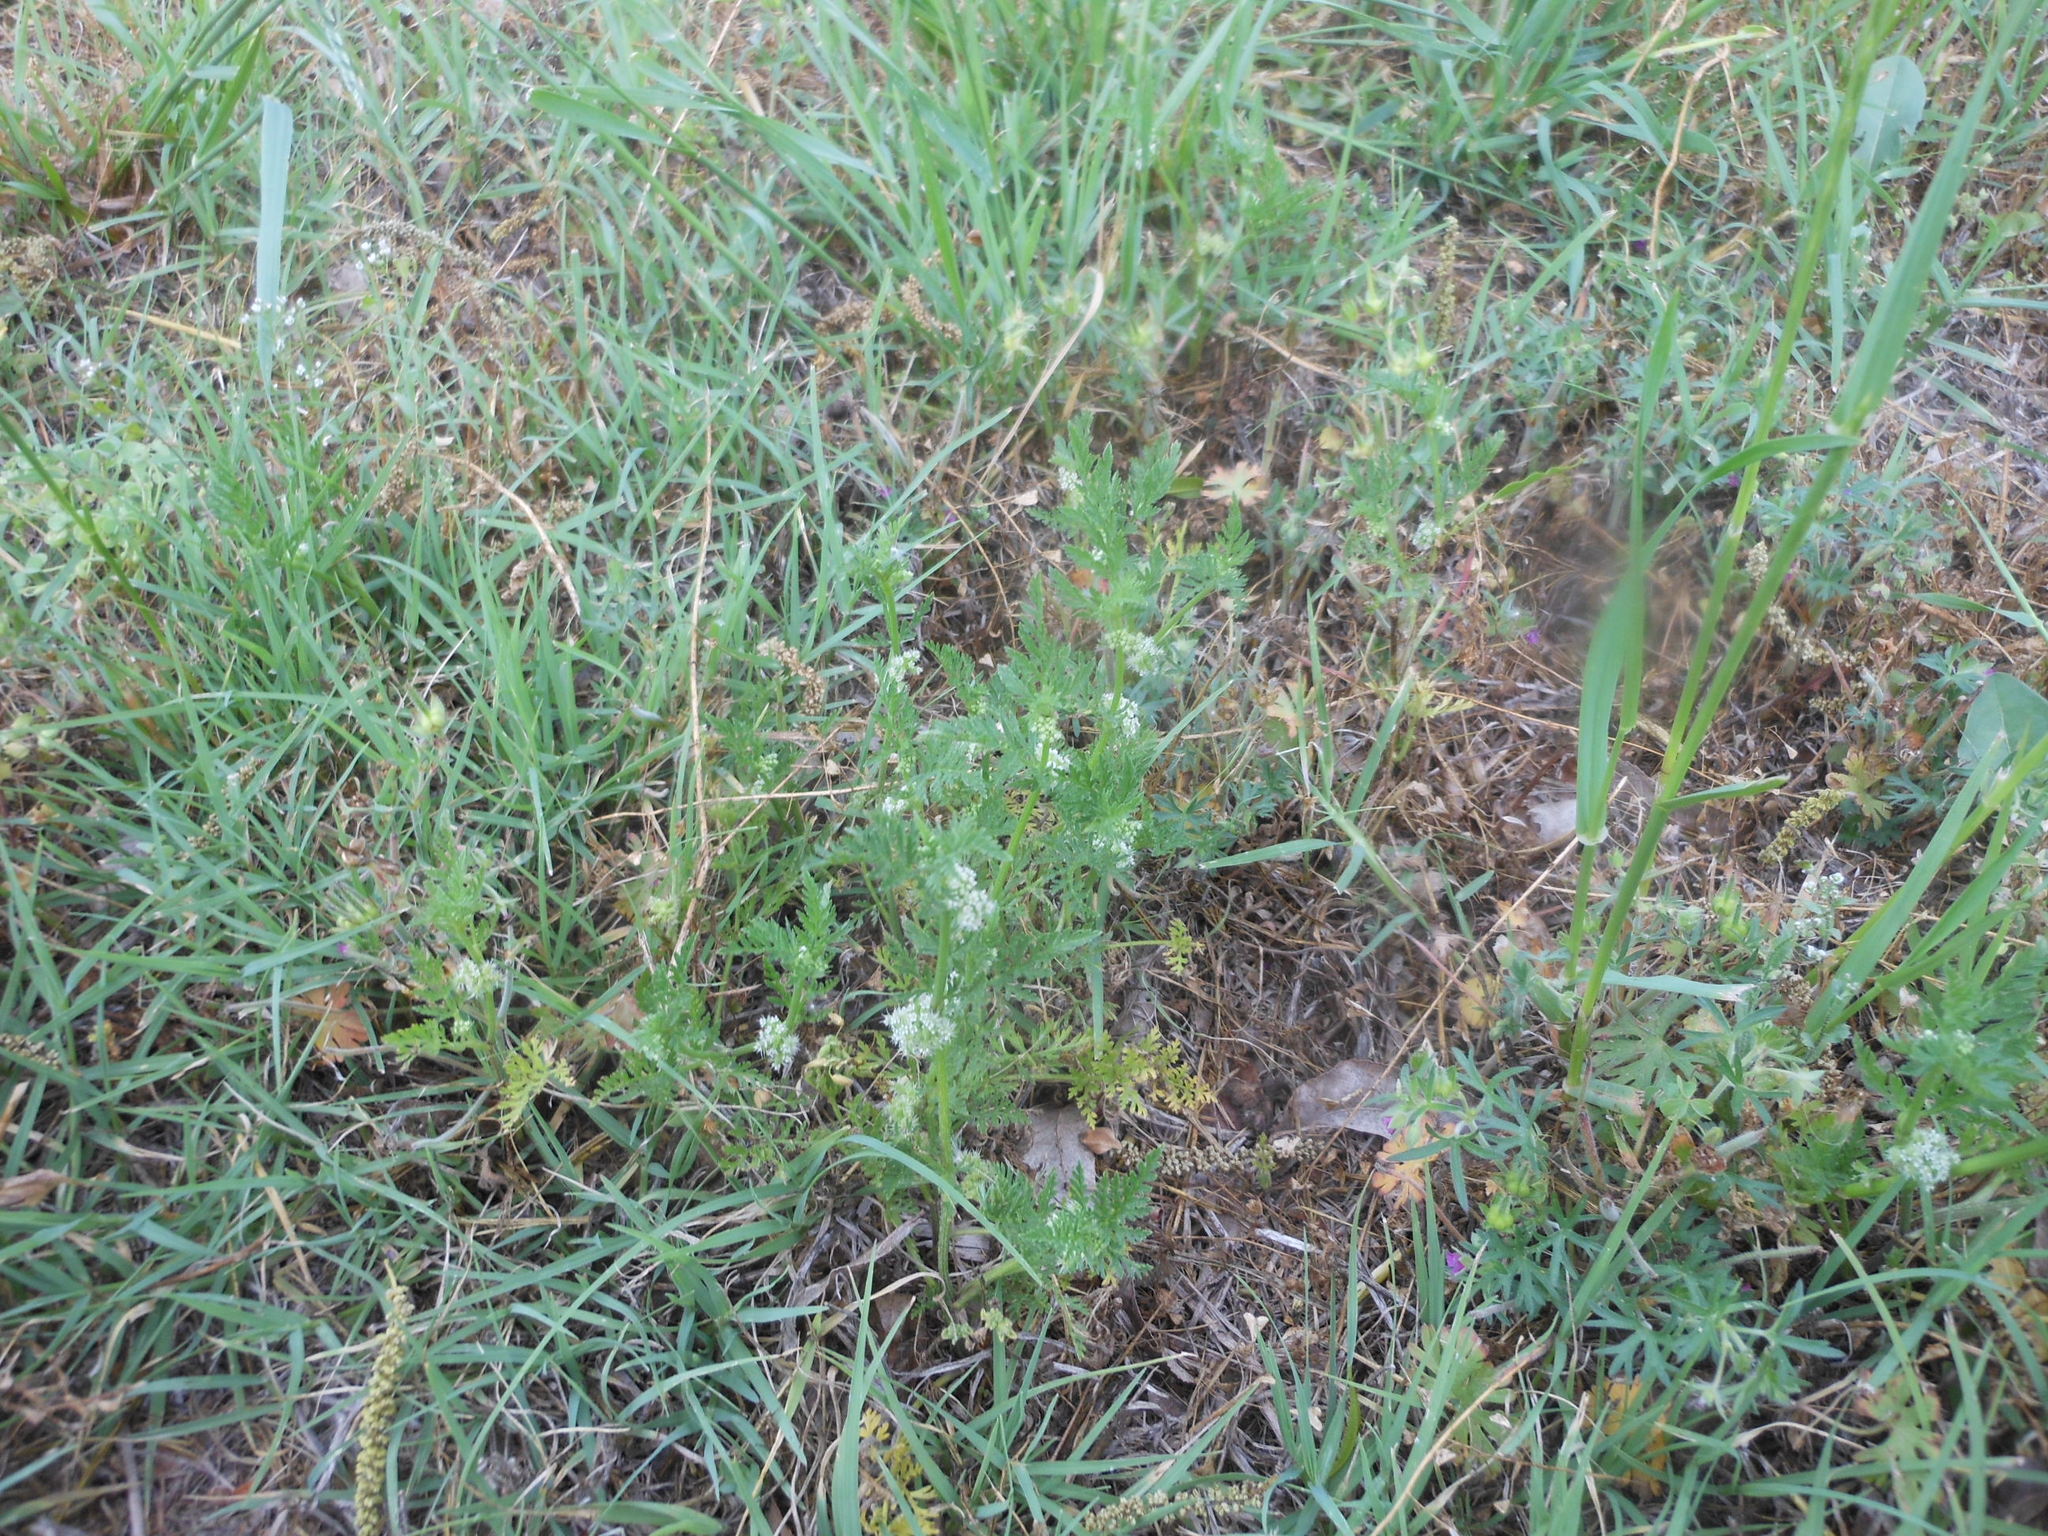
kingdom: Plantae
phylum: Tracheophyta
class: Magnoliopsida
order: Apiales
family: Apiaceae
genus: Torilis
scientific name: Torilis nodosa
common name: Knotted hedge-parsley
